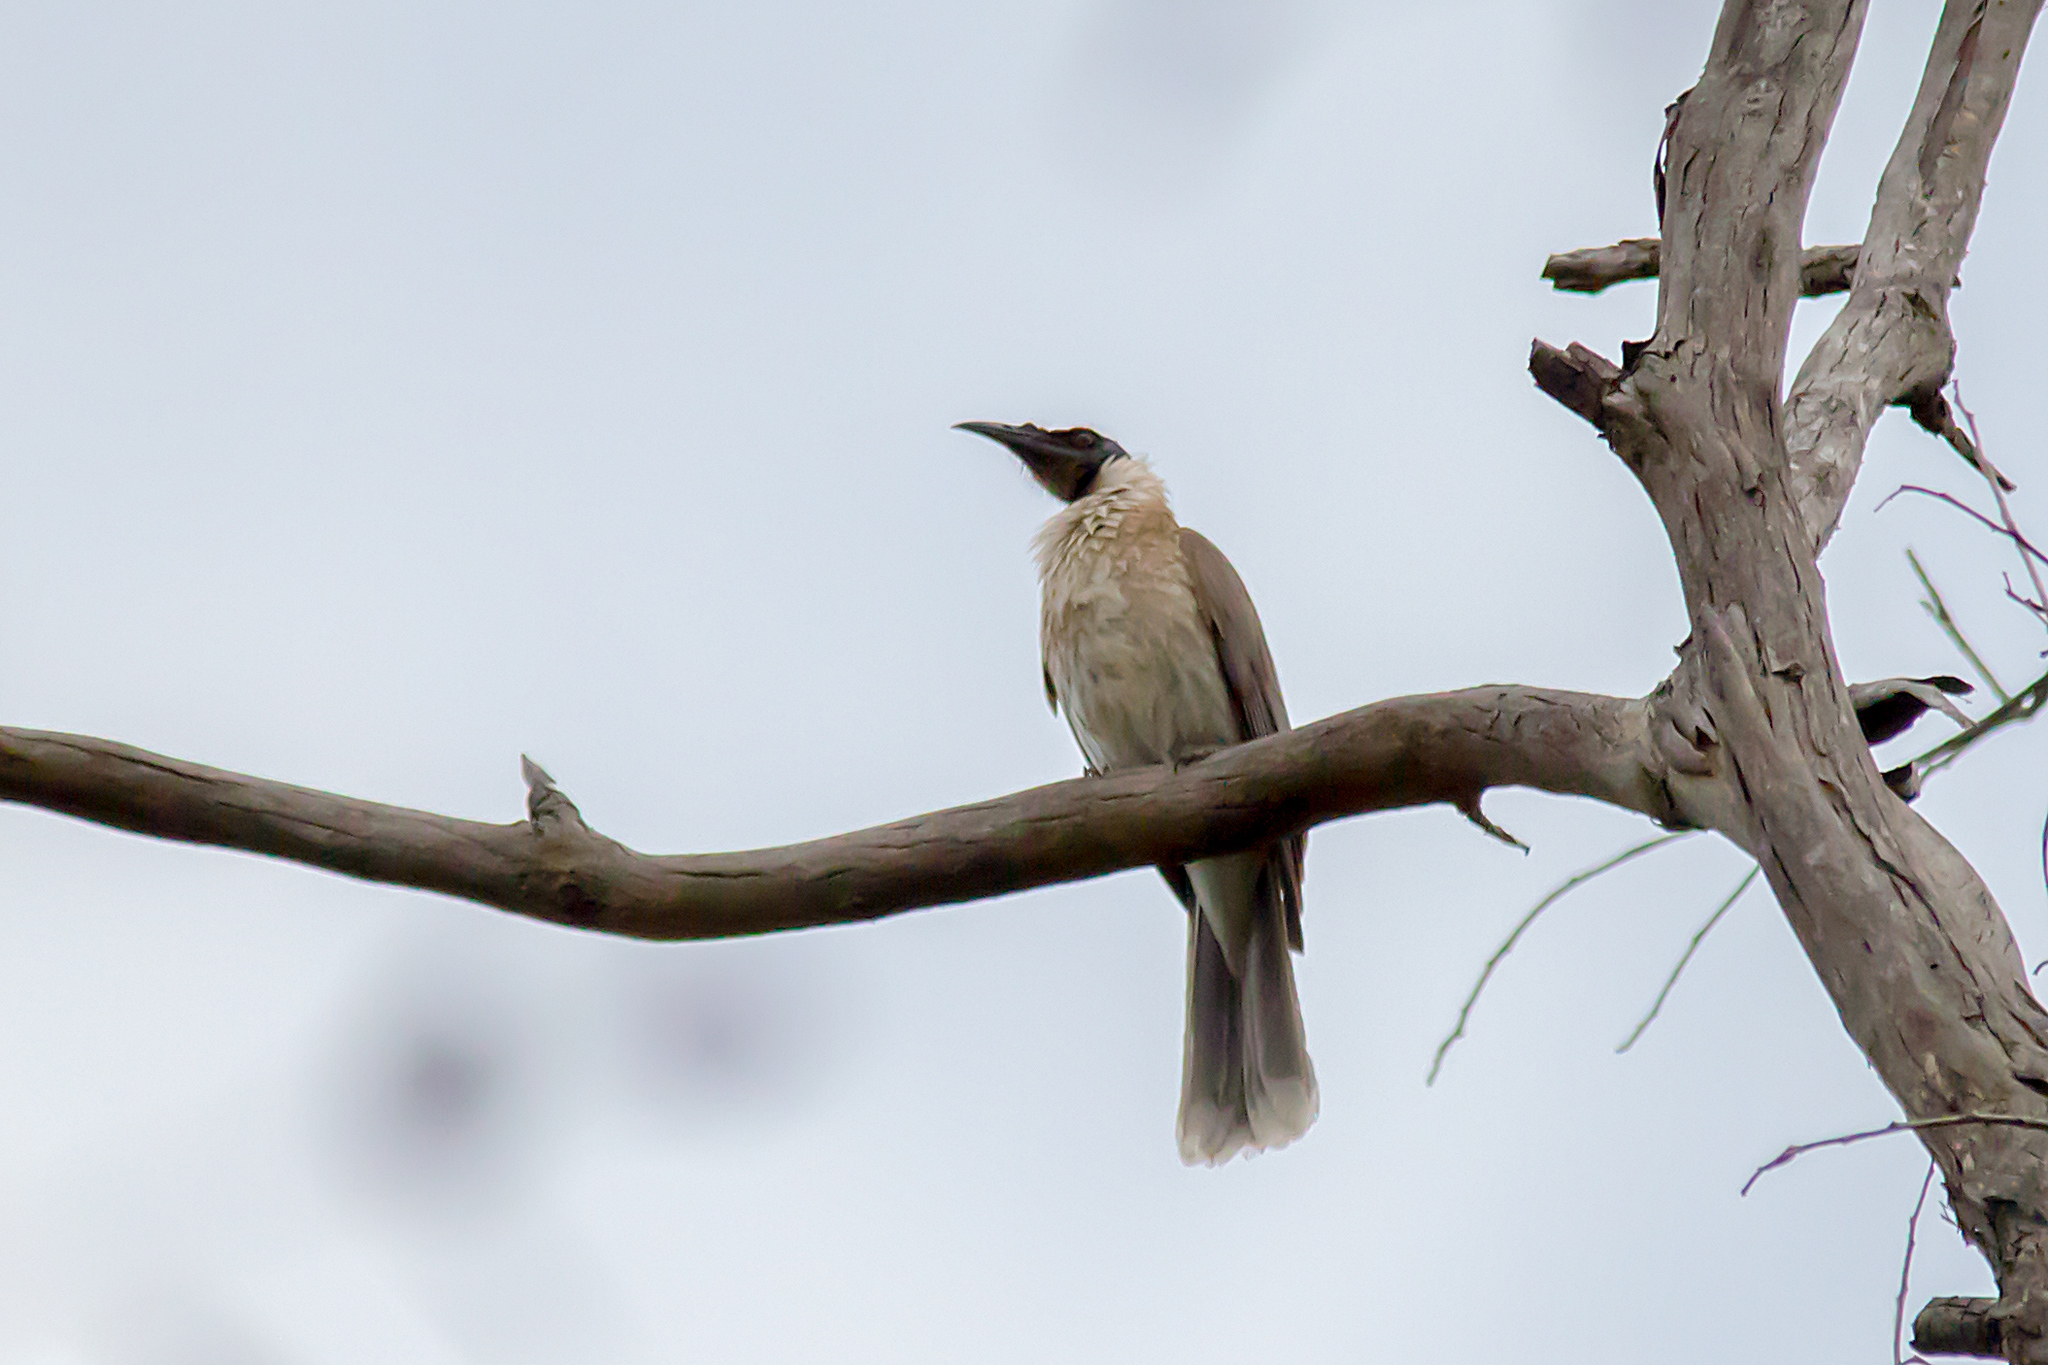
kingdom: Animalia
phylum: Chordata
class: Aves
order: Passeriformes
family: Meliphagidae
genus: Philemon
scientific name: Philemon corniculatus
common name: Noisy friarbird
